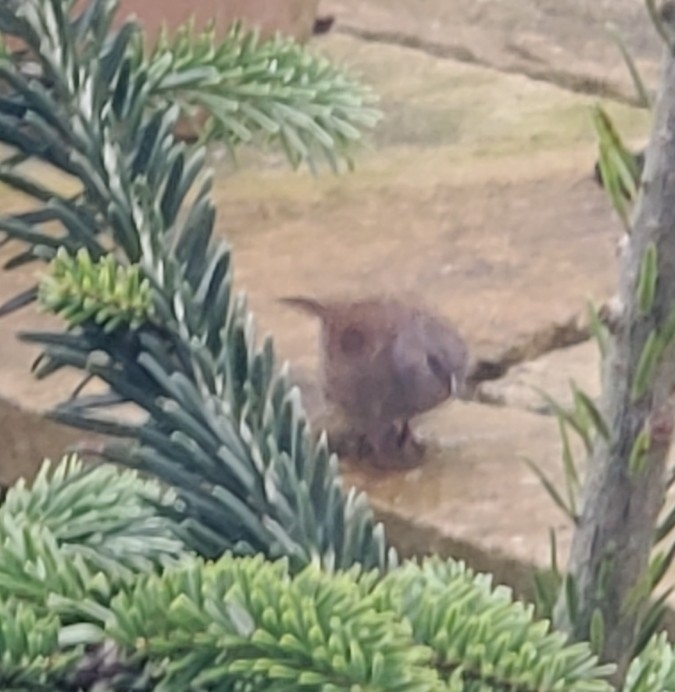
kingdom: Animalia
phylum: Chordata
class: Aves
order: Passeriformes
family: Prunellidae
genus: Prunella
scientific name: Prunella modularis
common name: Dunnock
